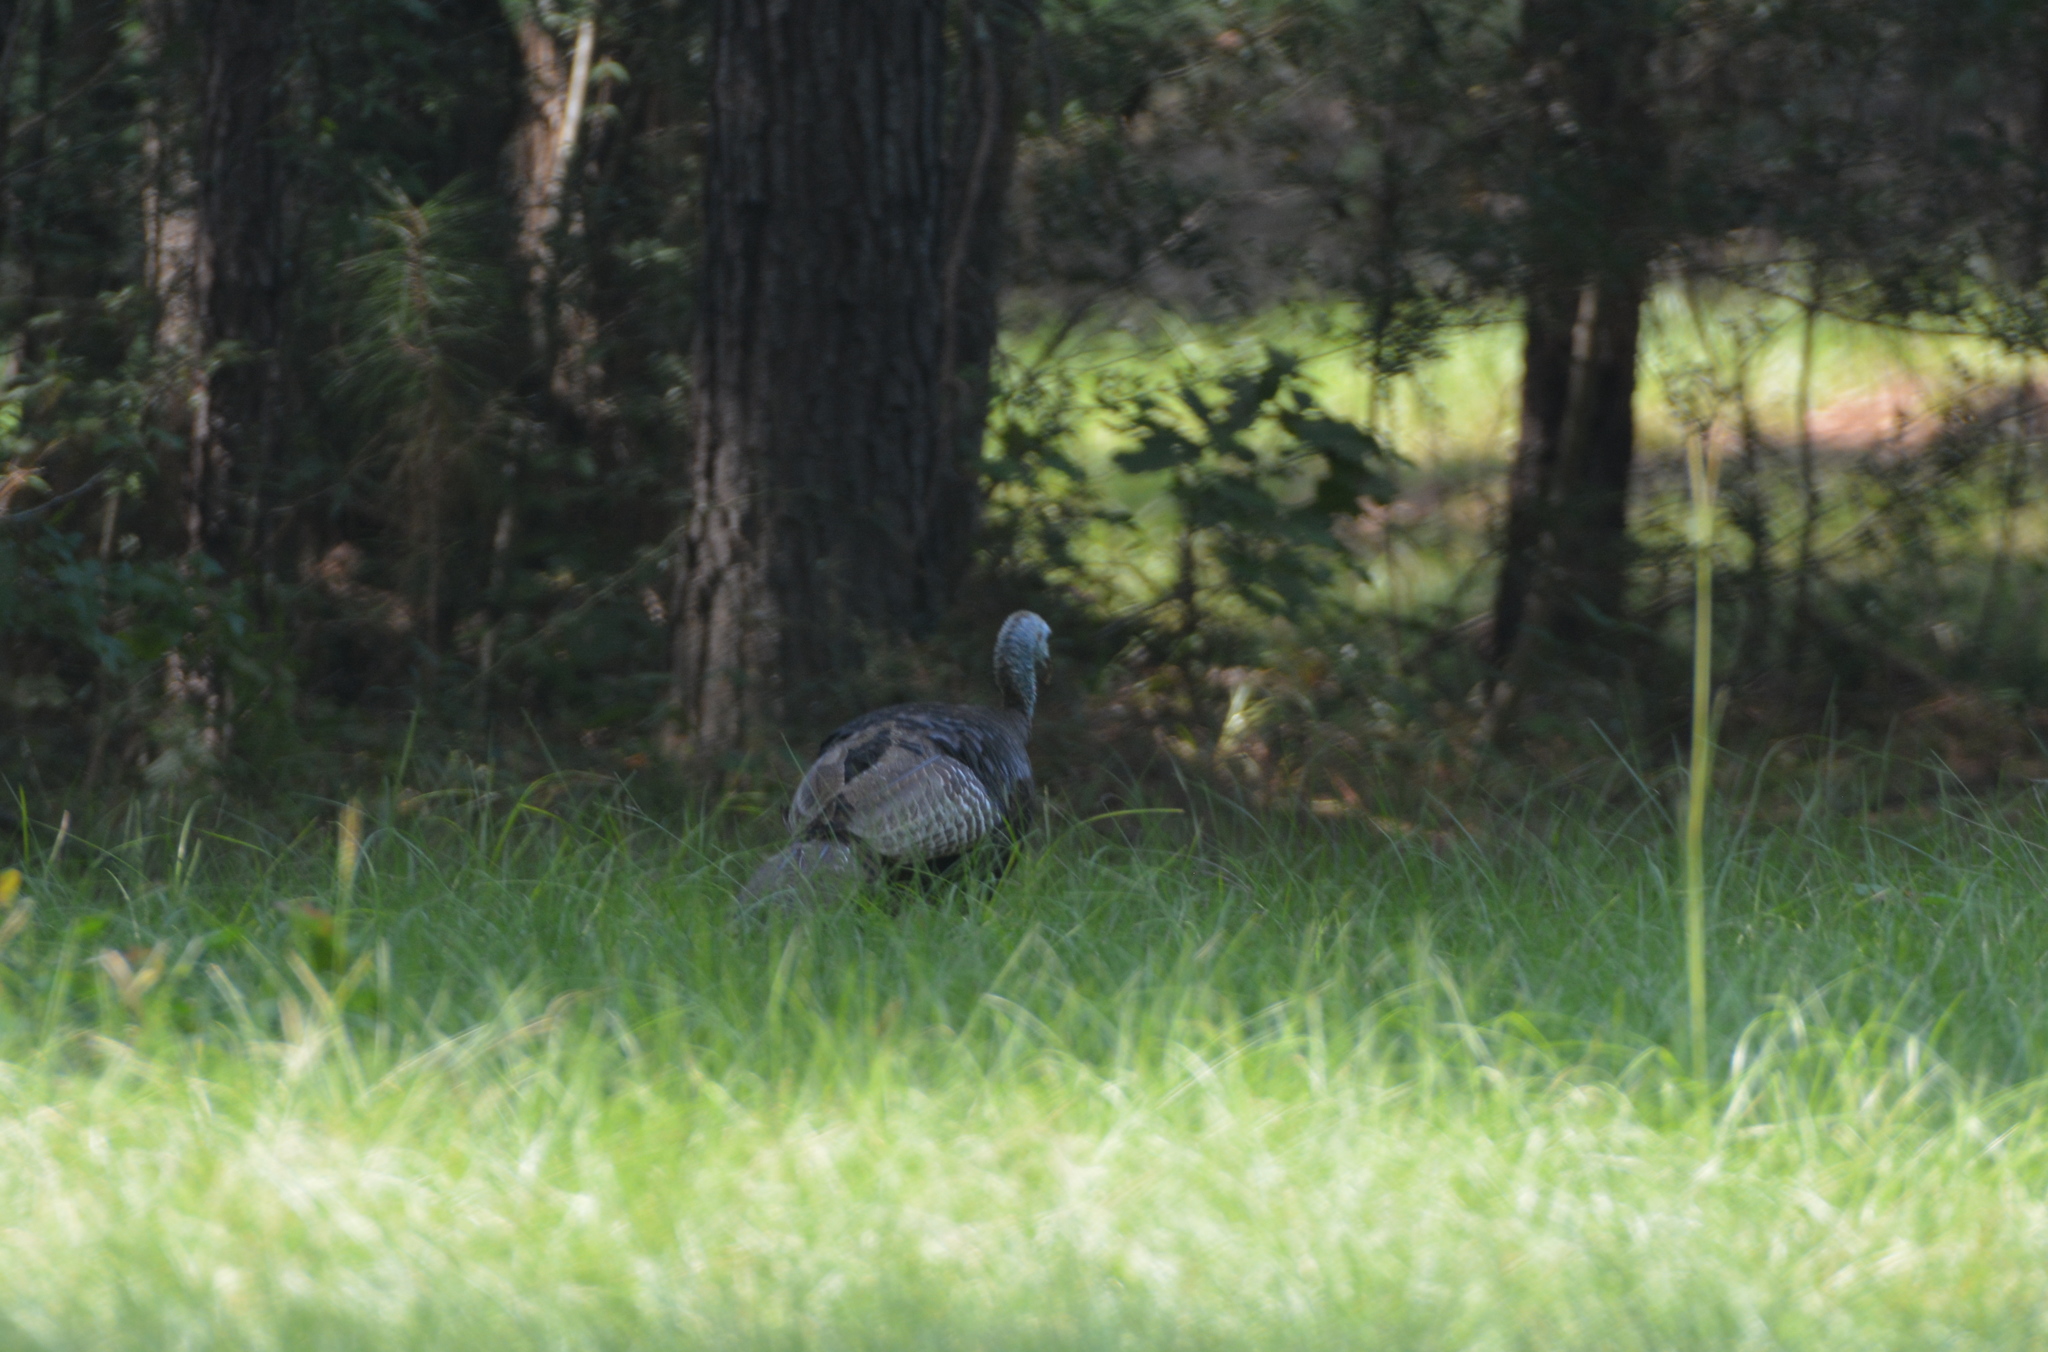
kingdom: Animalia
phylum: Chordata
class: Aves
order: Galliformes
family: Phasianidae
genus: Meleagris
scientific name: Meleagris gallopavo
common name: Wild turkey
